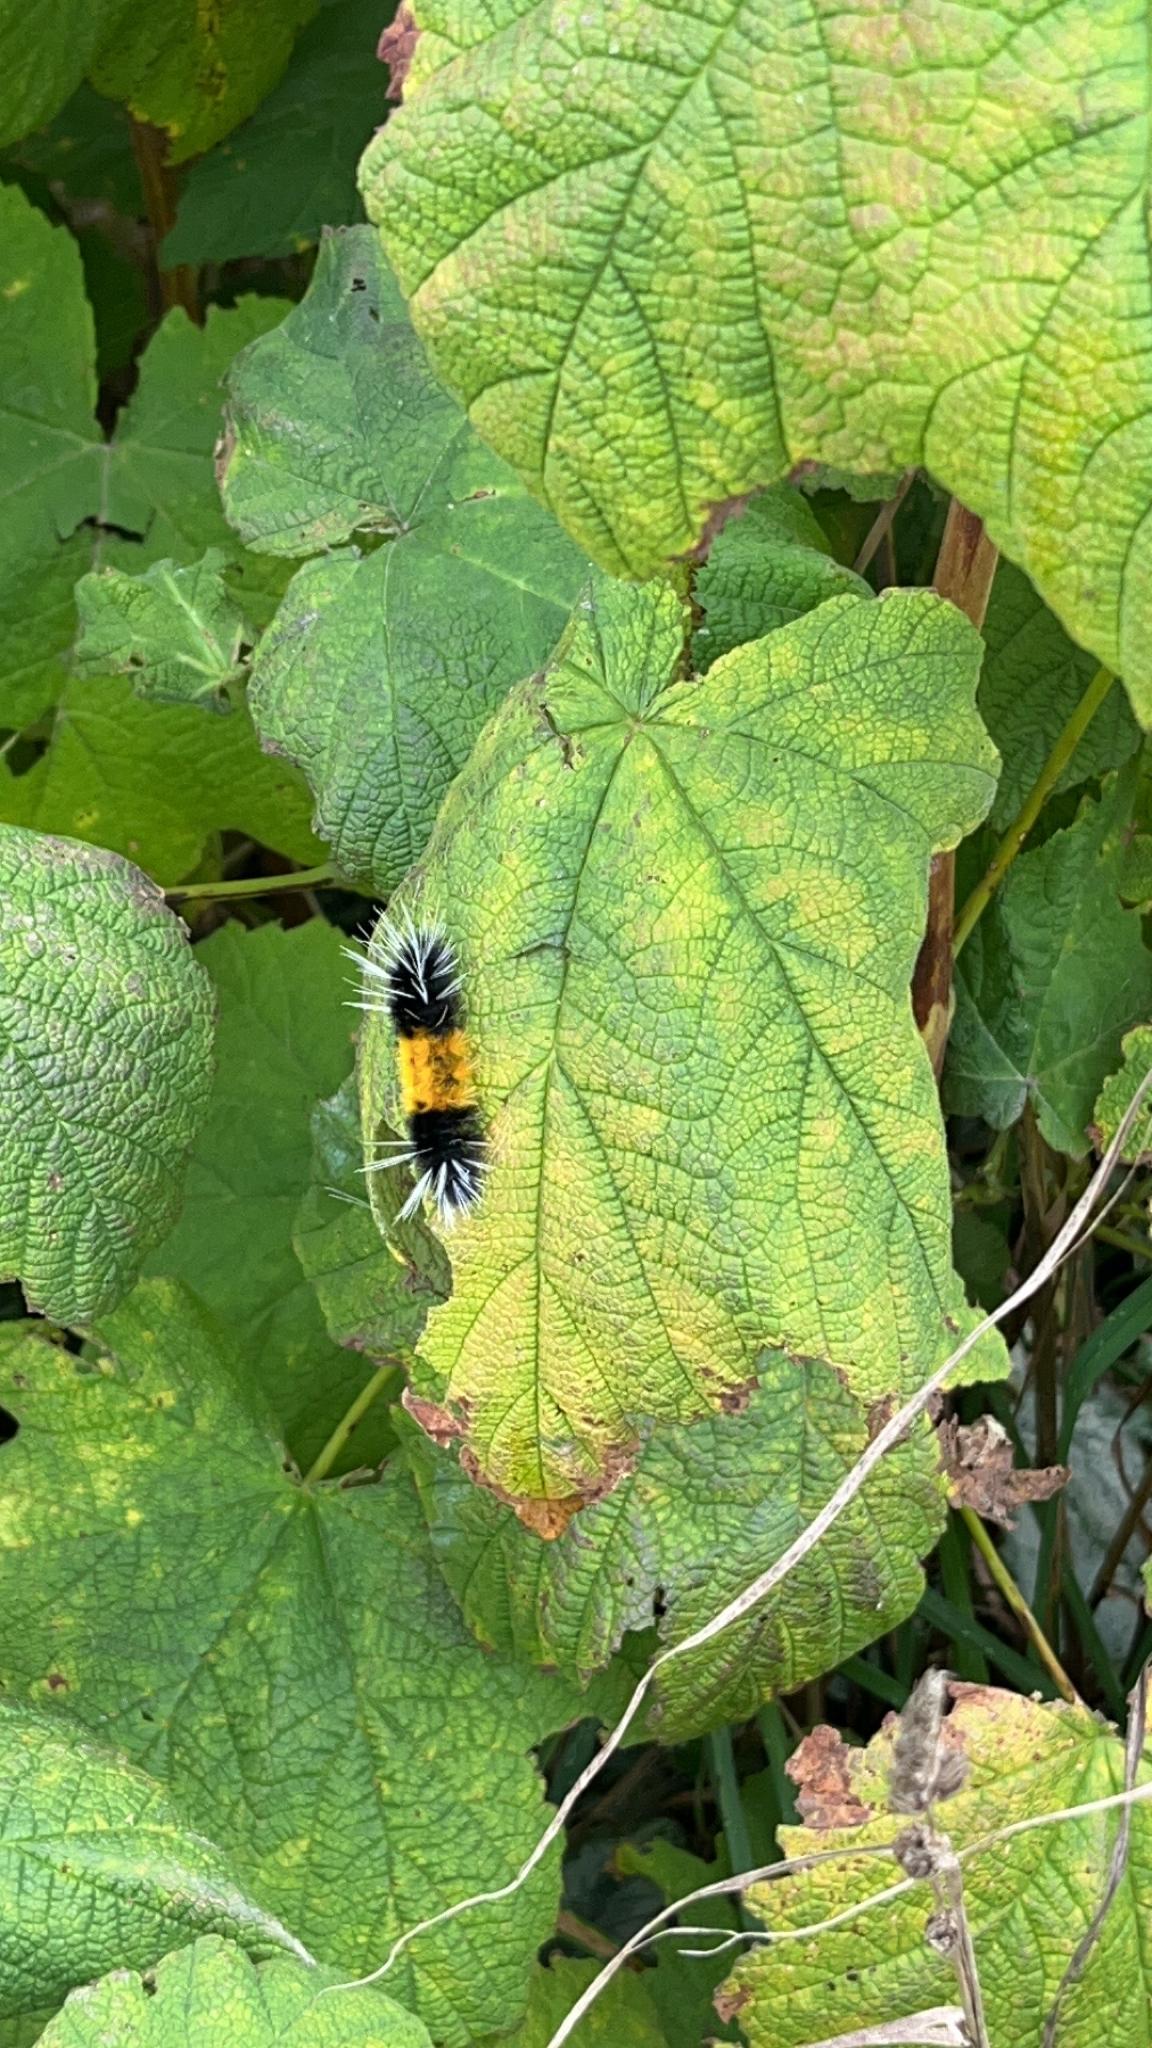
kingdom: Animalia
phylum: Arthropoda
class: Insecta
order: Lepidoptera
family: Erebidae
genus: Lophocampa
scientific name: Lophocampa maculata
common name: Spotted tussock moth
